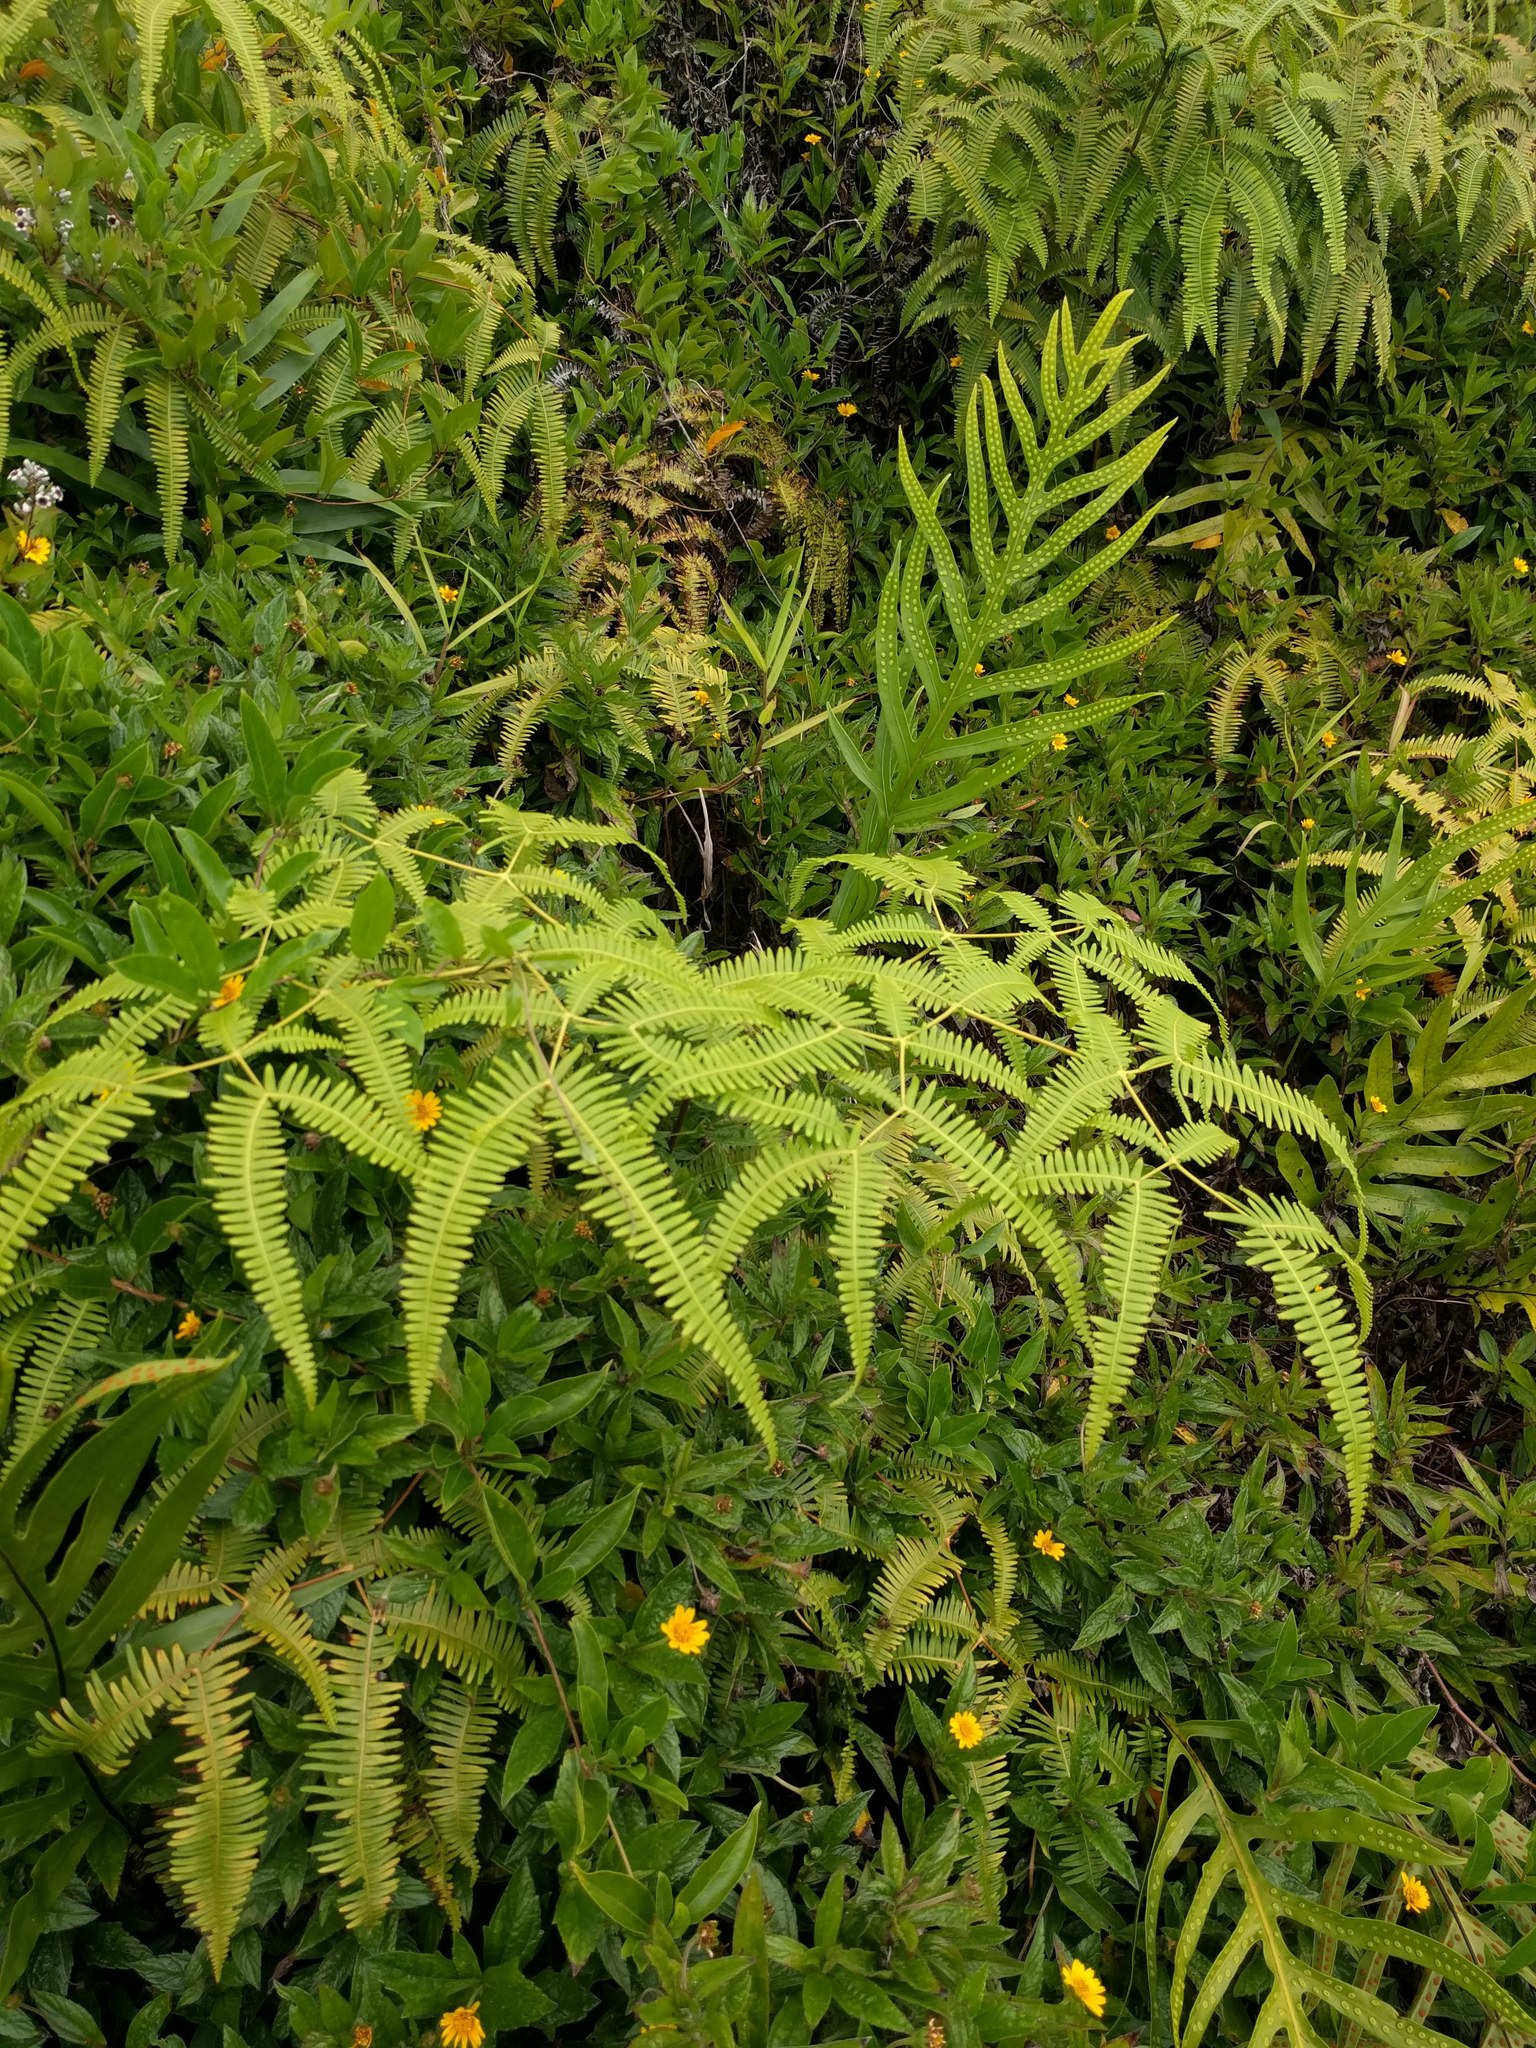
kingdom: Plantae
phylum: Tracheophyta
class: Polypodiopsida
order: Gleicheniales
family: Gleicheniaceae
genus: Dicranopteris
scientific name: Dicranopteris linearis
